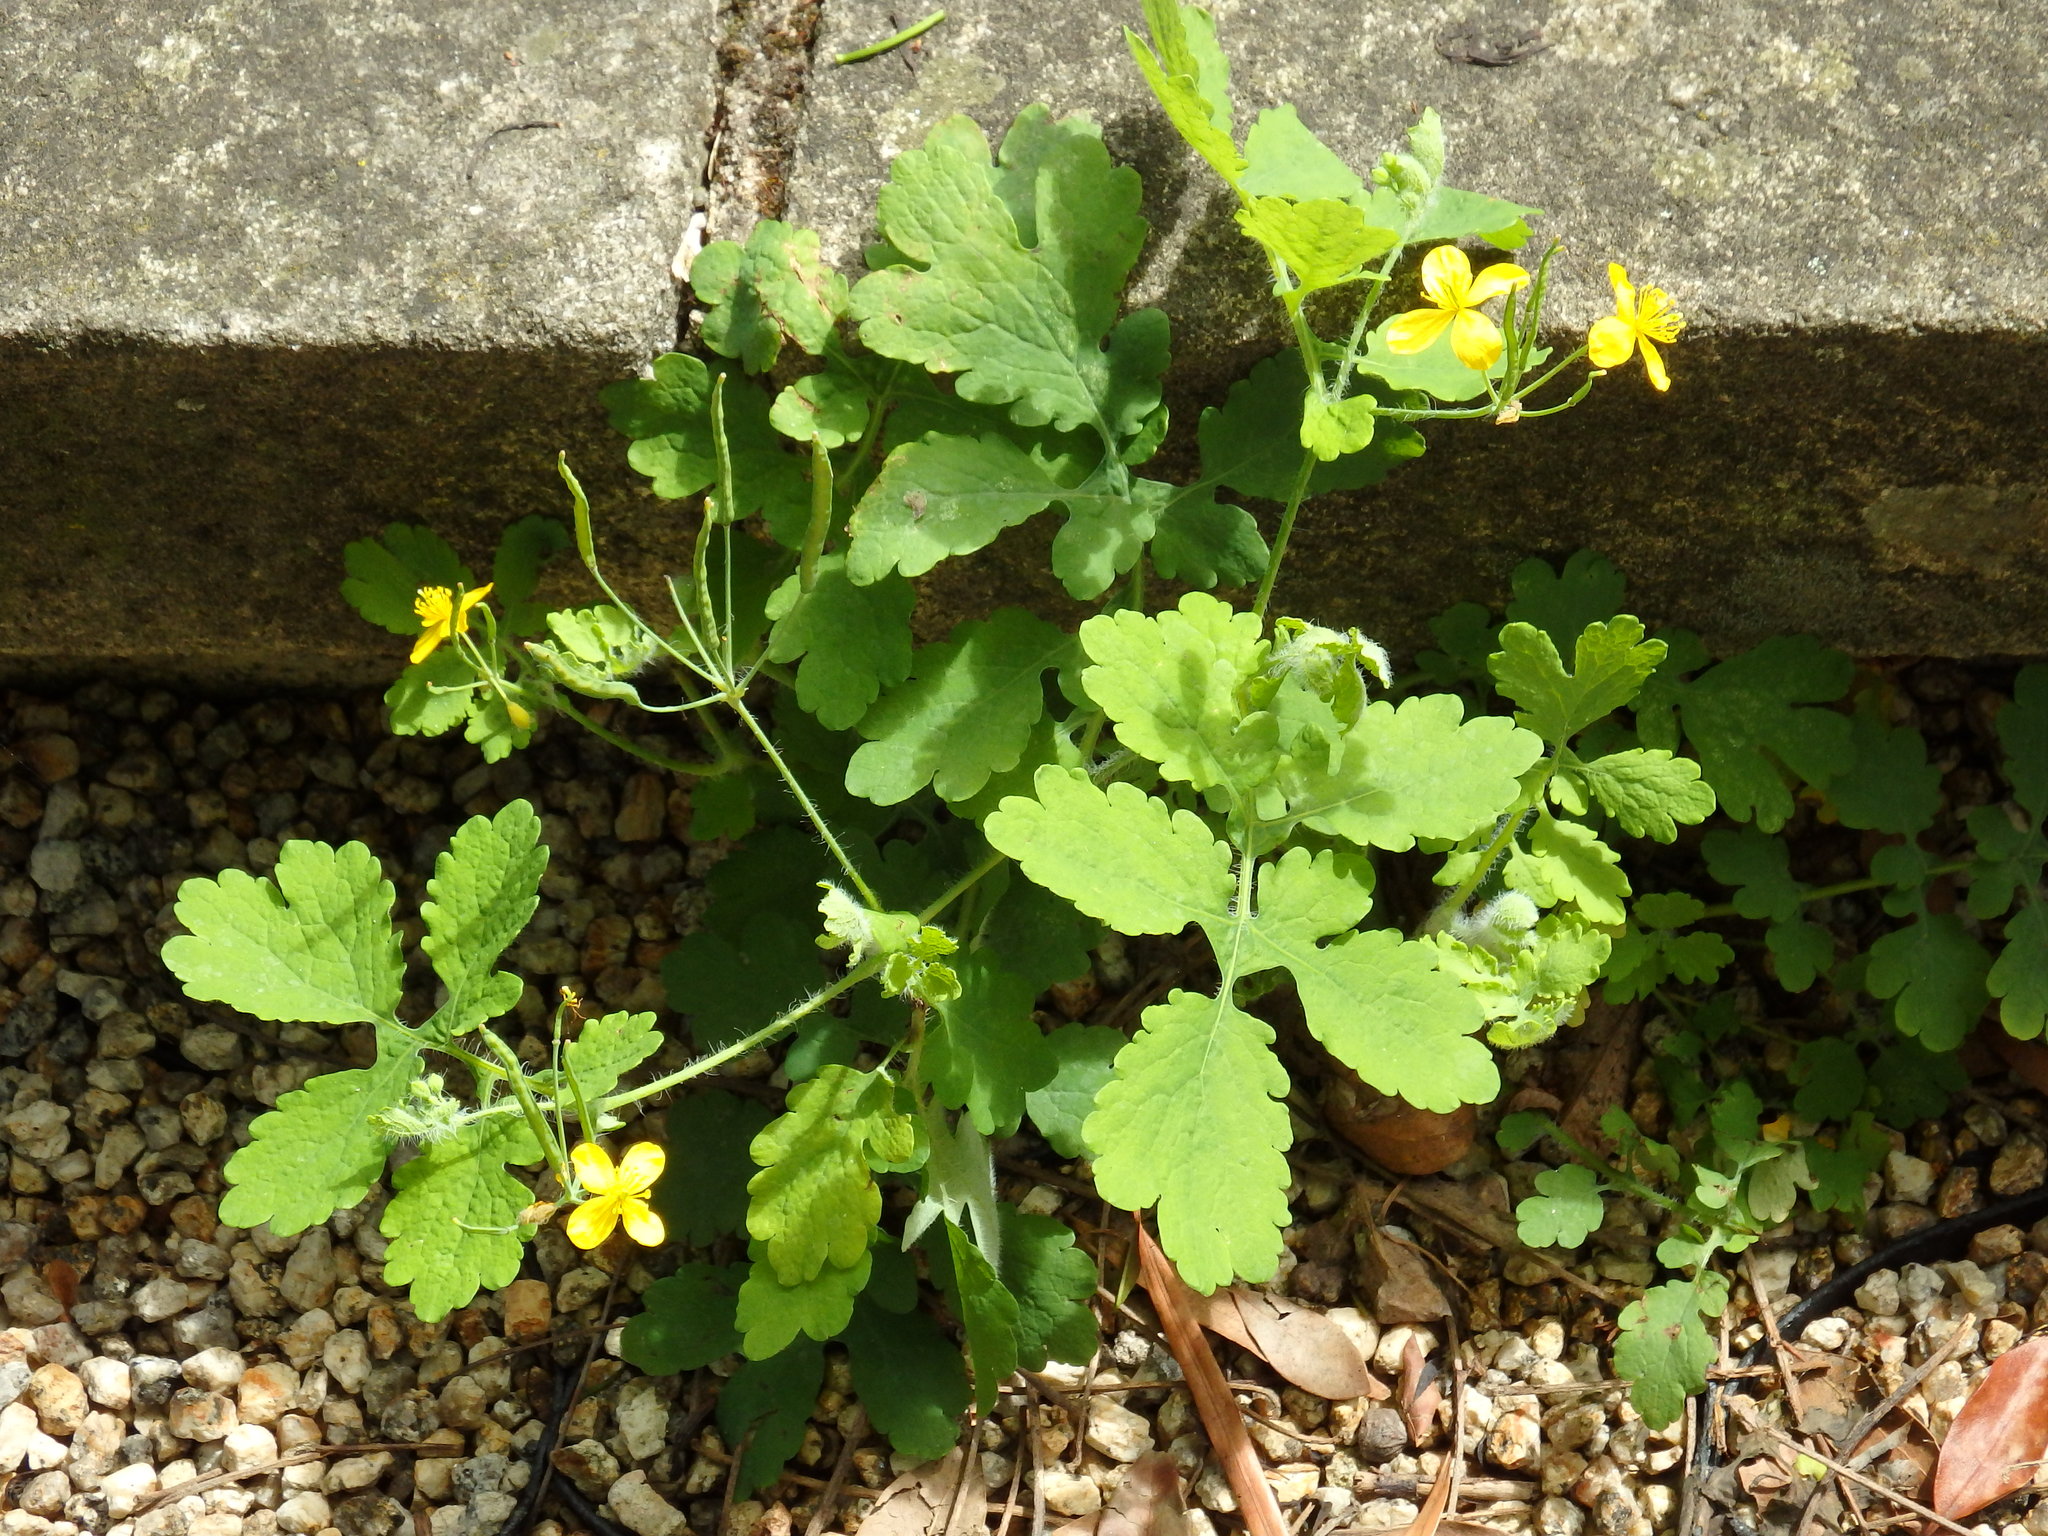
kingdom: Plantae
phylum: Tracheophyta
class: Magnoliopsida
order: Ranunculales
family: Papaveraceae
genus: Chelidonium
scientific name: Chelidonium majus
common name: Greater celandine
